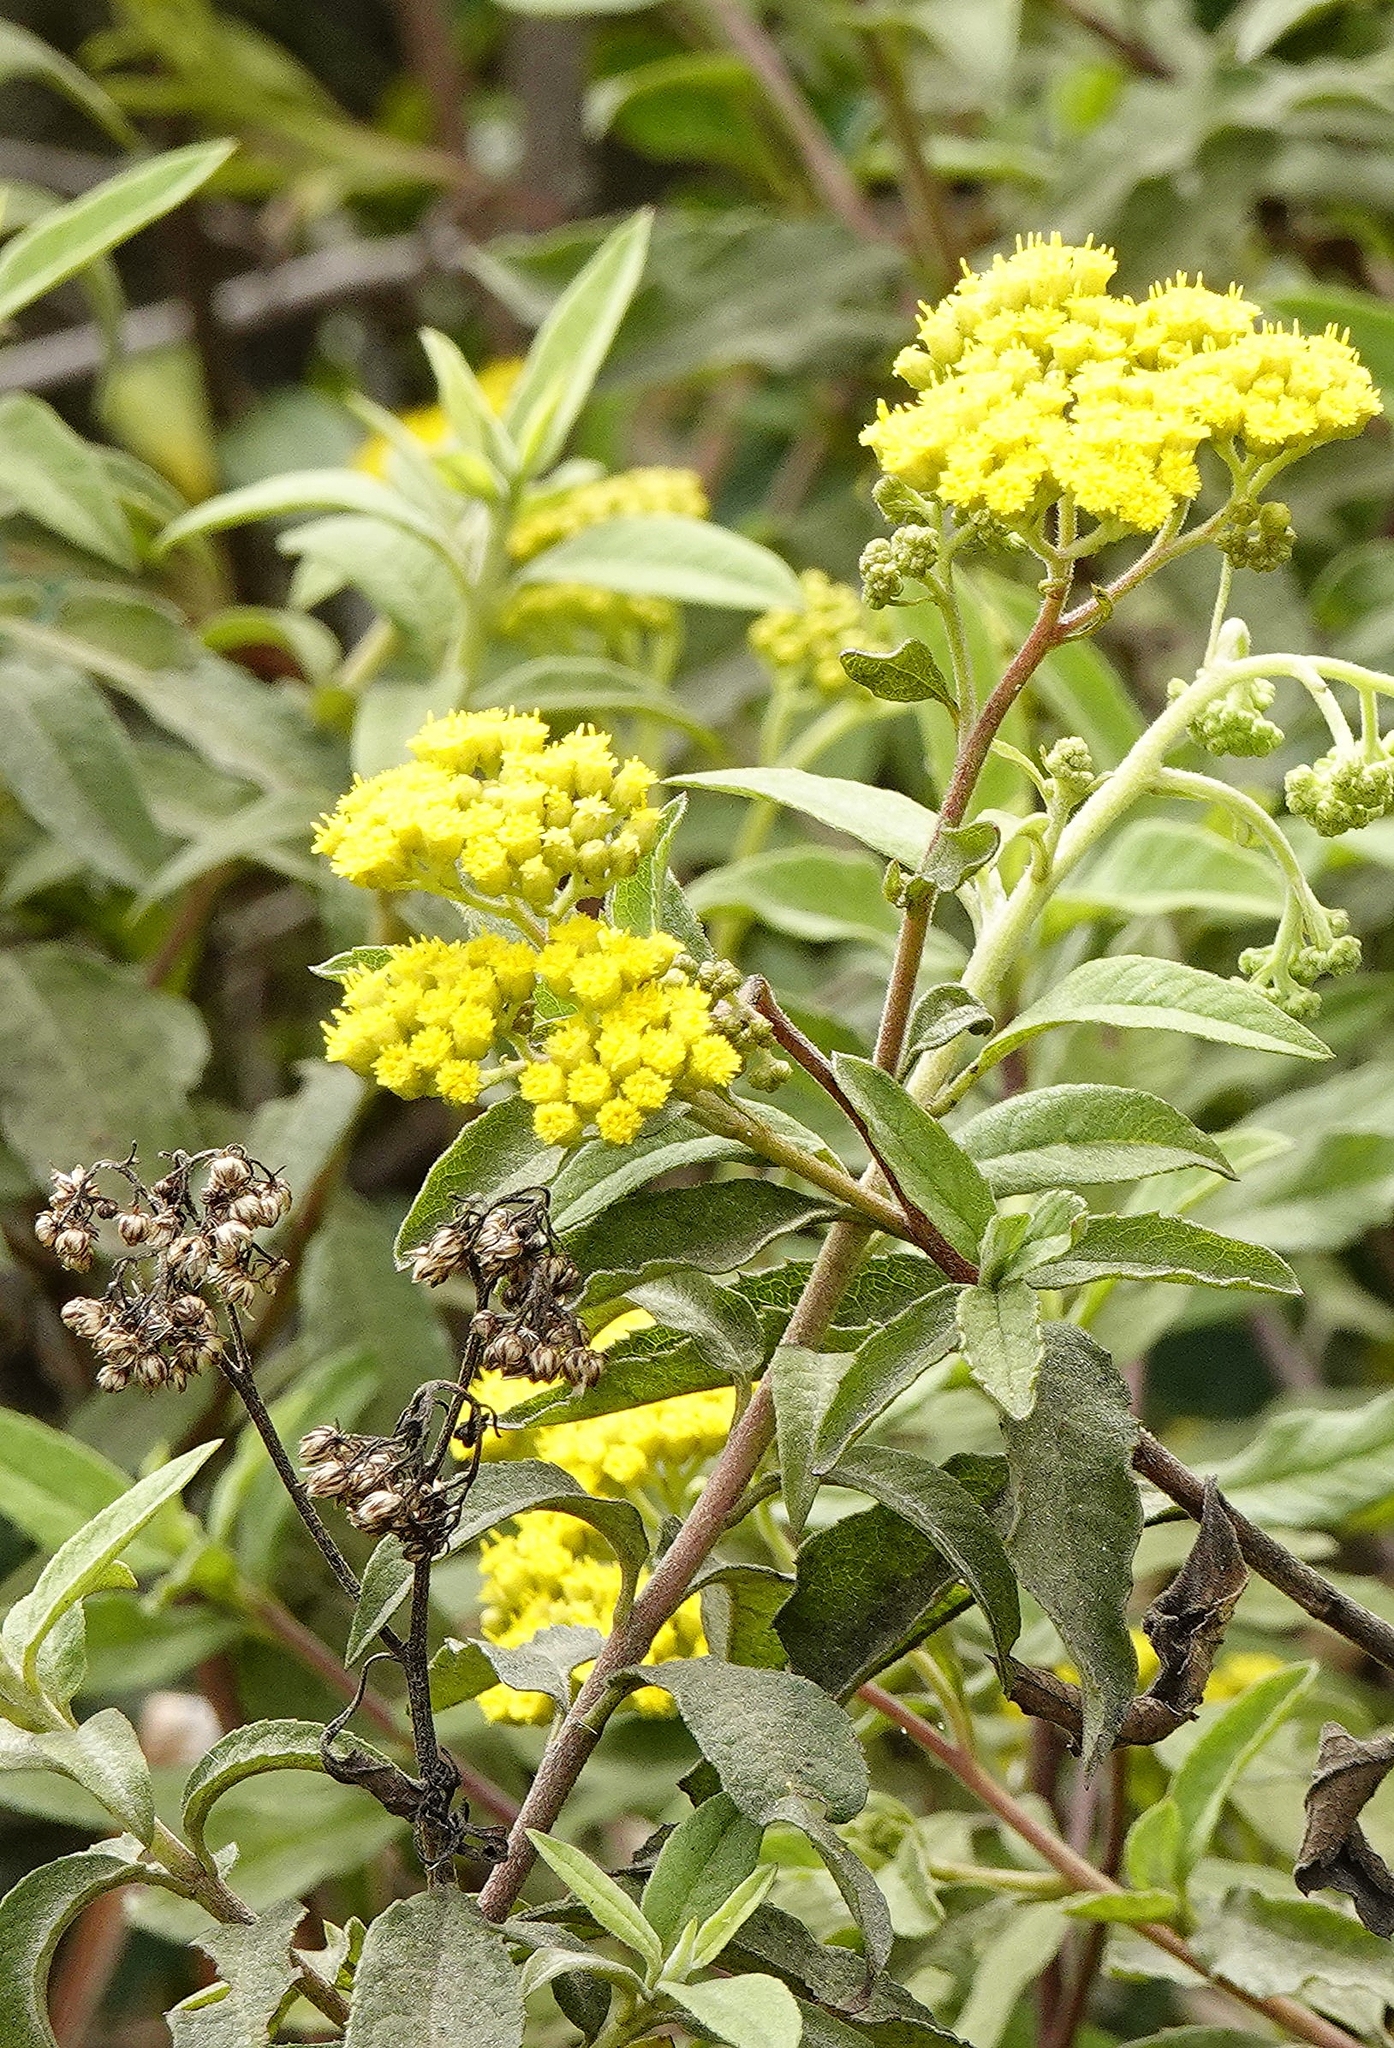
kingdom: Plantae
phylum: Tracheophyta
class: Magnoliopsida
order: Asterales
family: Asteraceae
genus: Psiadia
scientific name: Psiadia salviifolia
